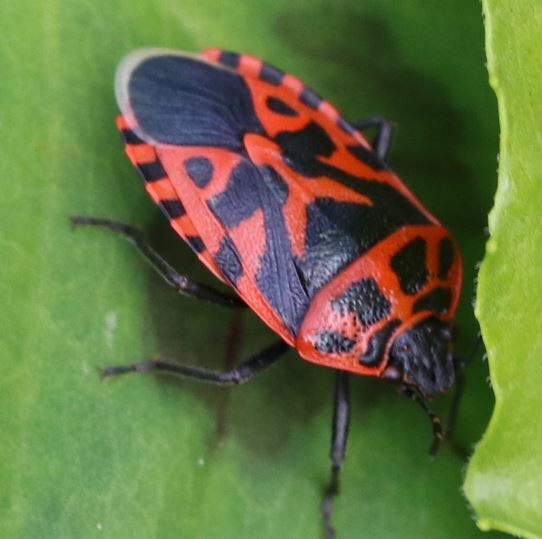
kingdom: Animalia
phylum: Arthropoda
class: Insecta
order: Hemiptera
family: Pentatomidae
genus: Eurydema
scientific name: Eurydema ventralis
